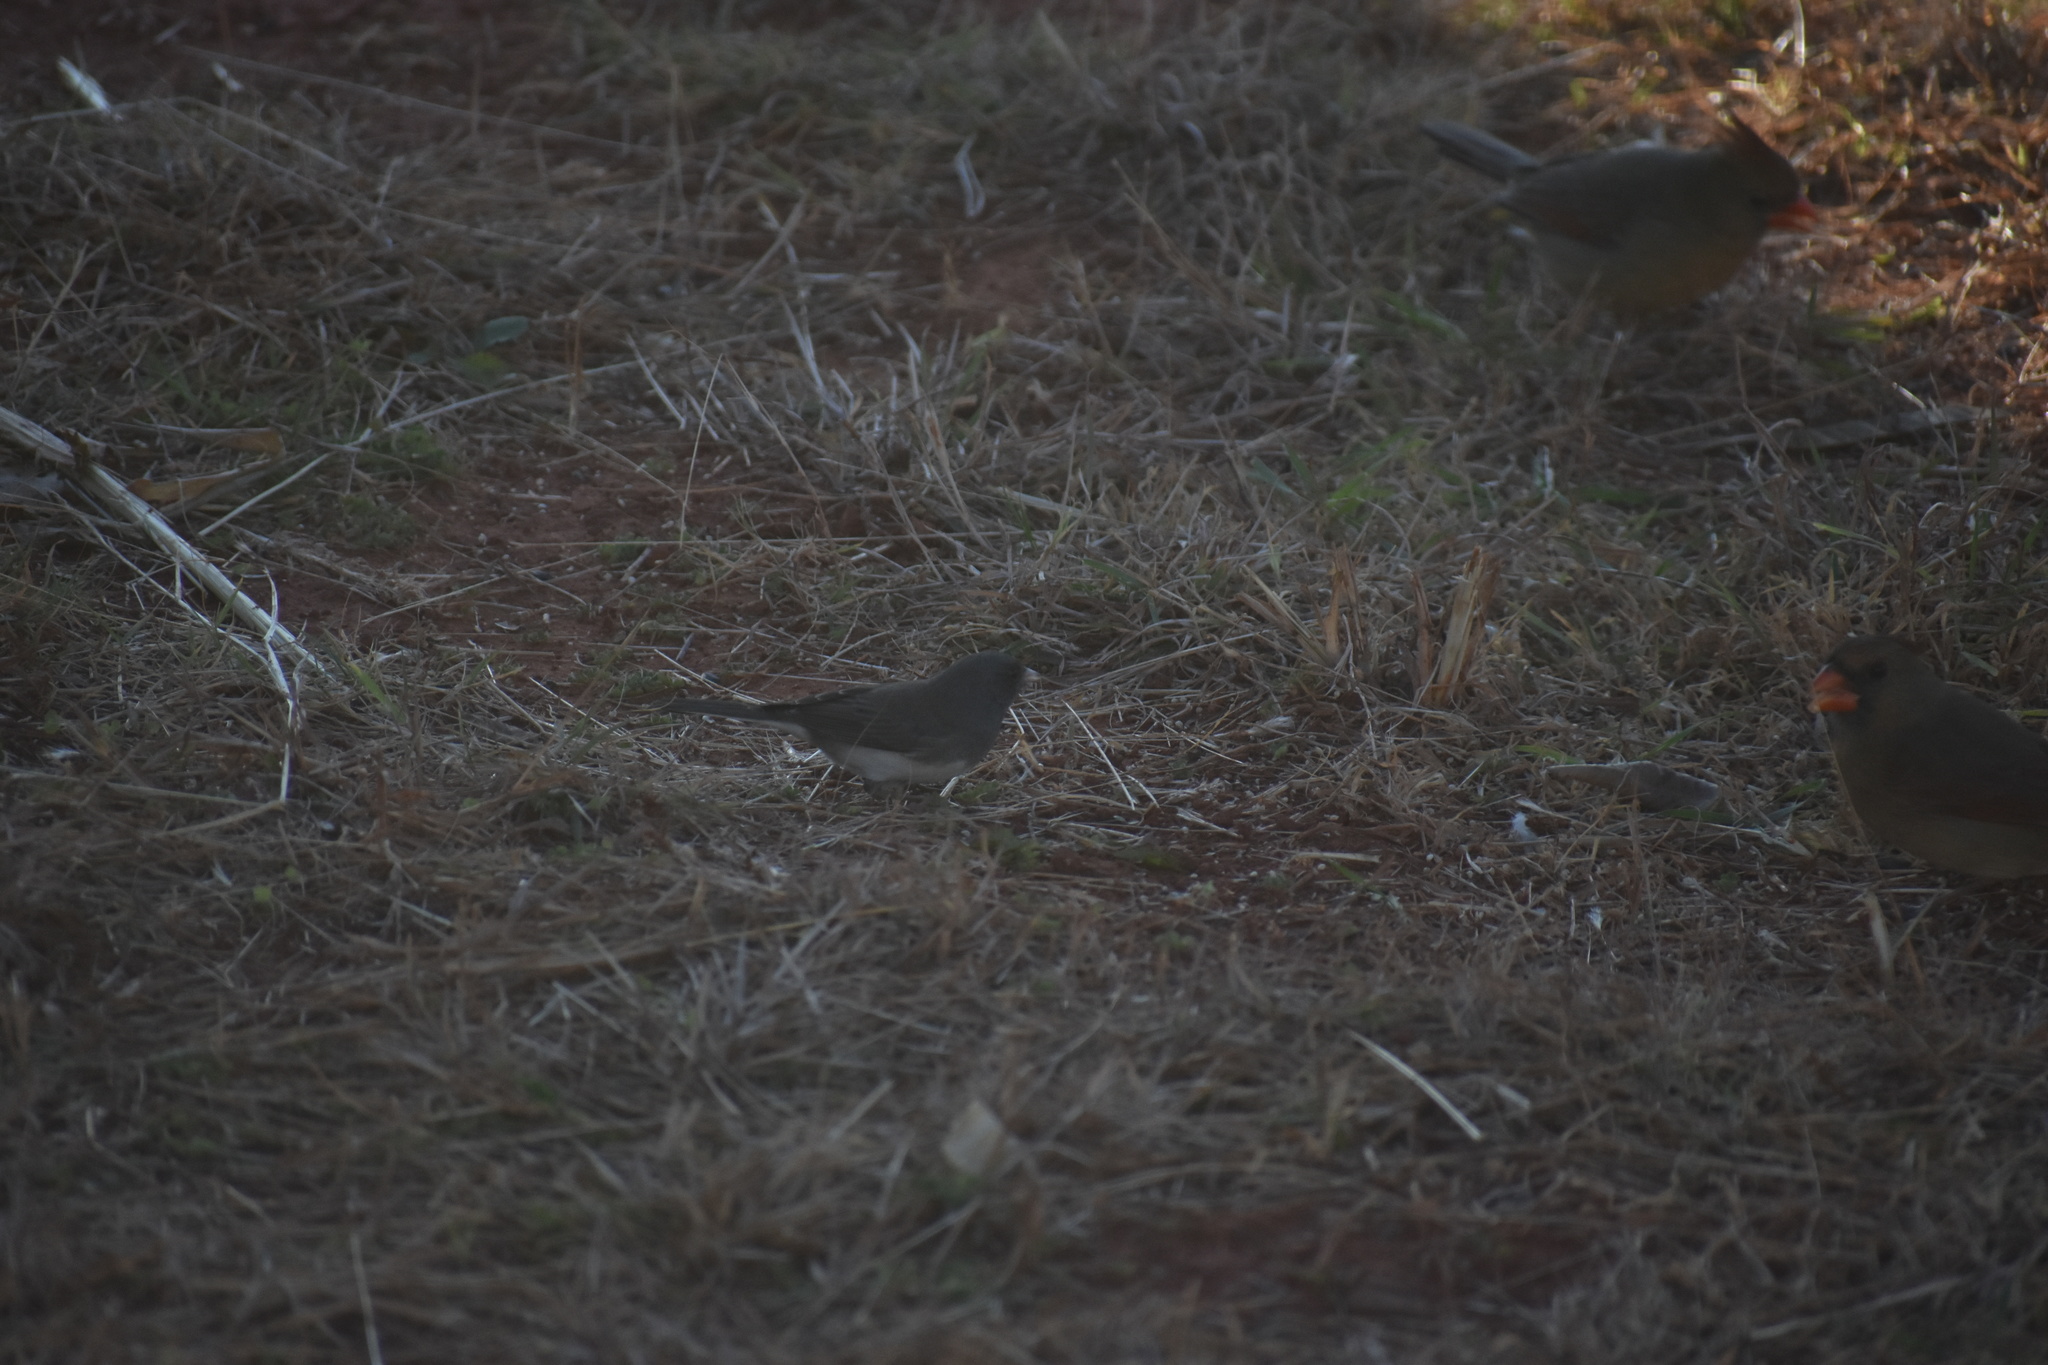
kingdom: Animalia
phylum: Chordata
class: Aves
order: Passeriformes
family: Passerellidae
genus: Junco
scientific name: Junco hyemalis
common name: Dark-eyed junco
